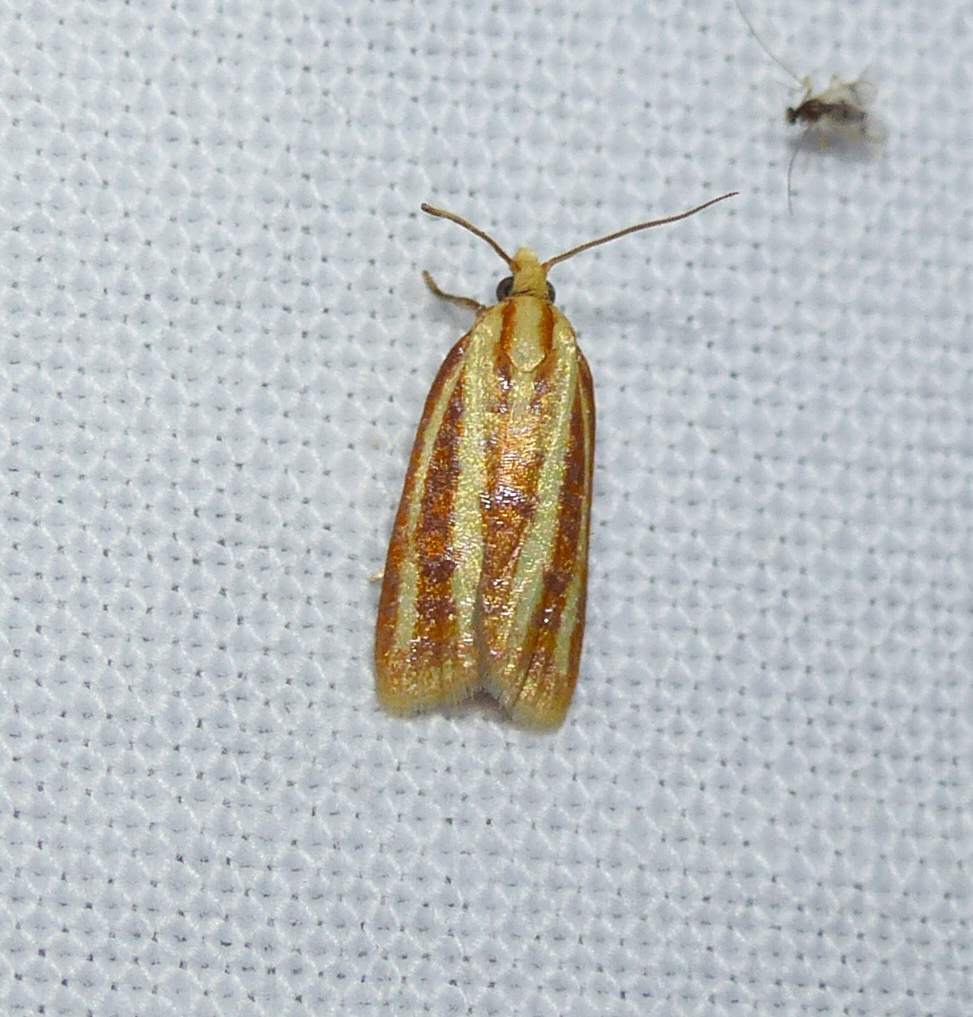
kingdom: Animalia
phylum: Arthropoda
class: Insecta
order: Lepidoptera
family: Tortricidae
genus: Sparganothis
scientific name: Sparganothis tristriata
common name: Three-streaked sparganothis moth
